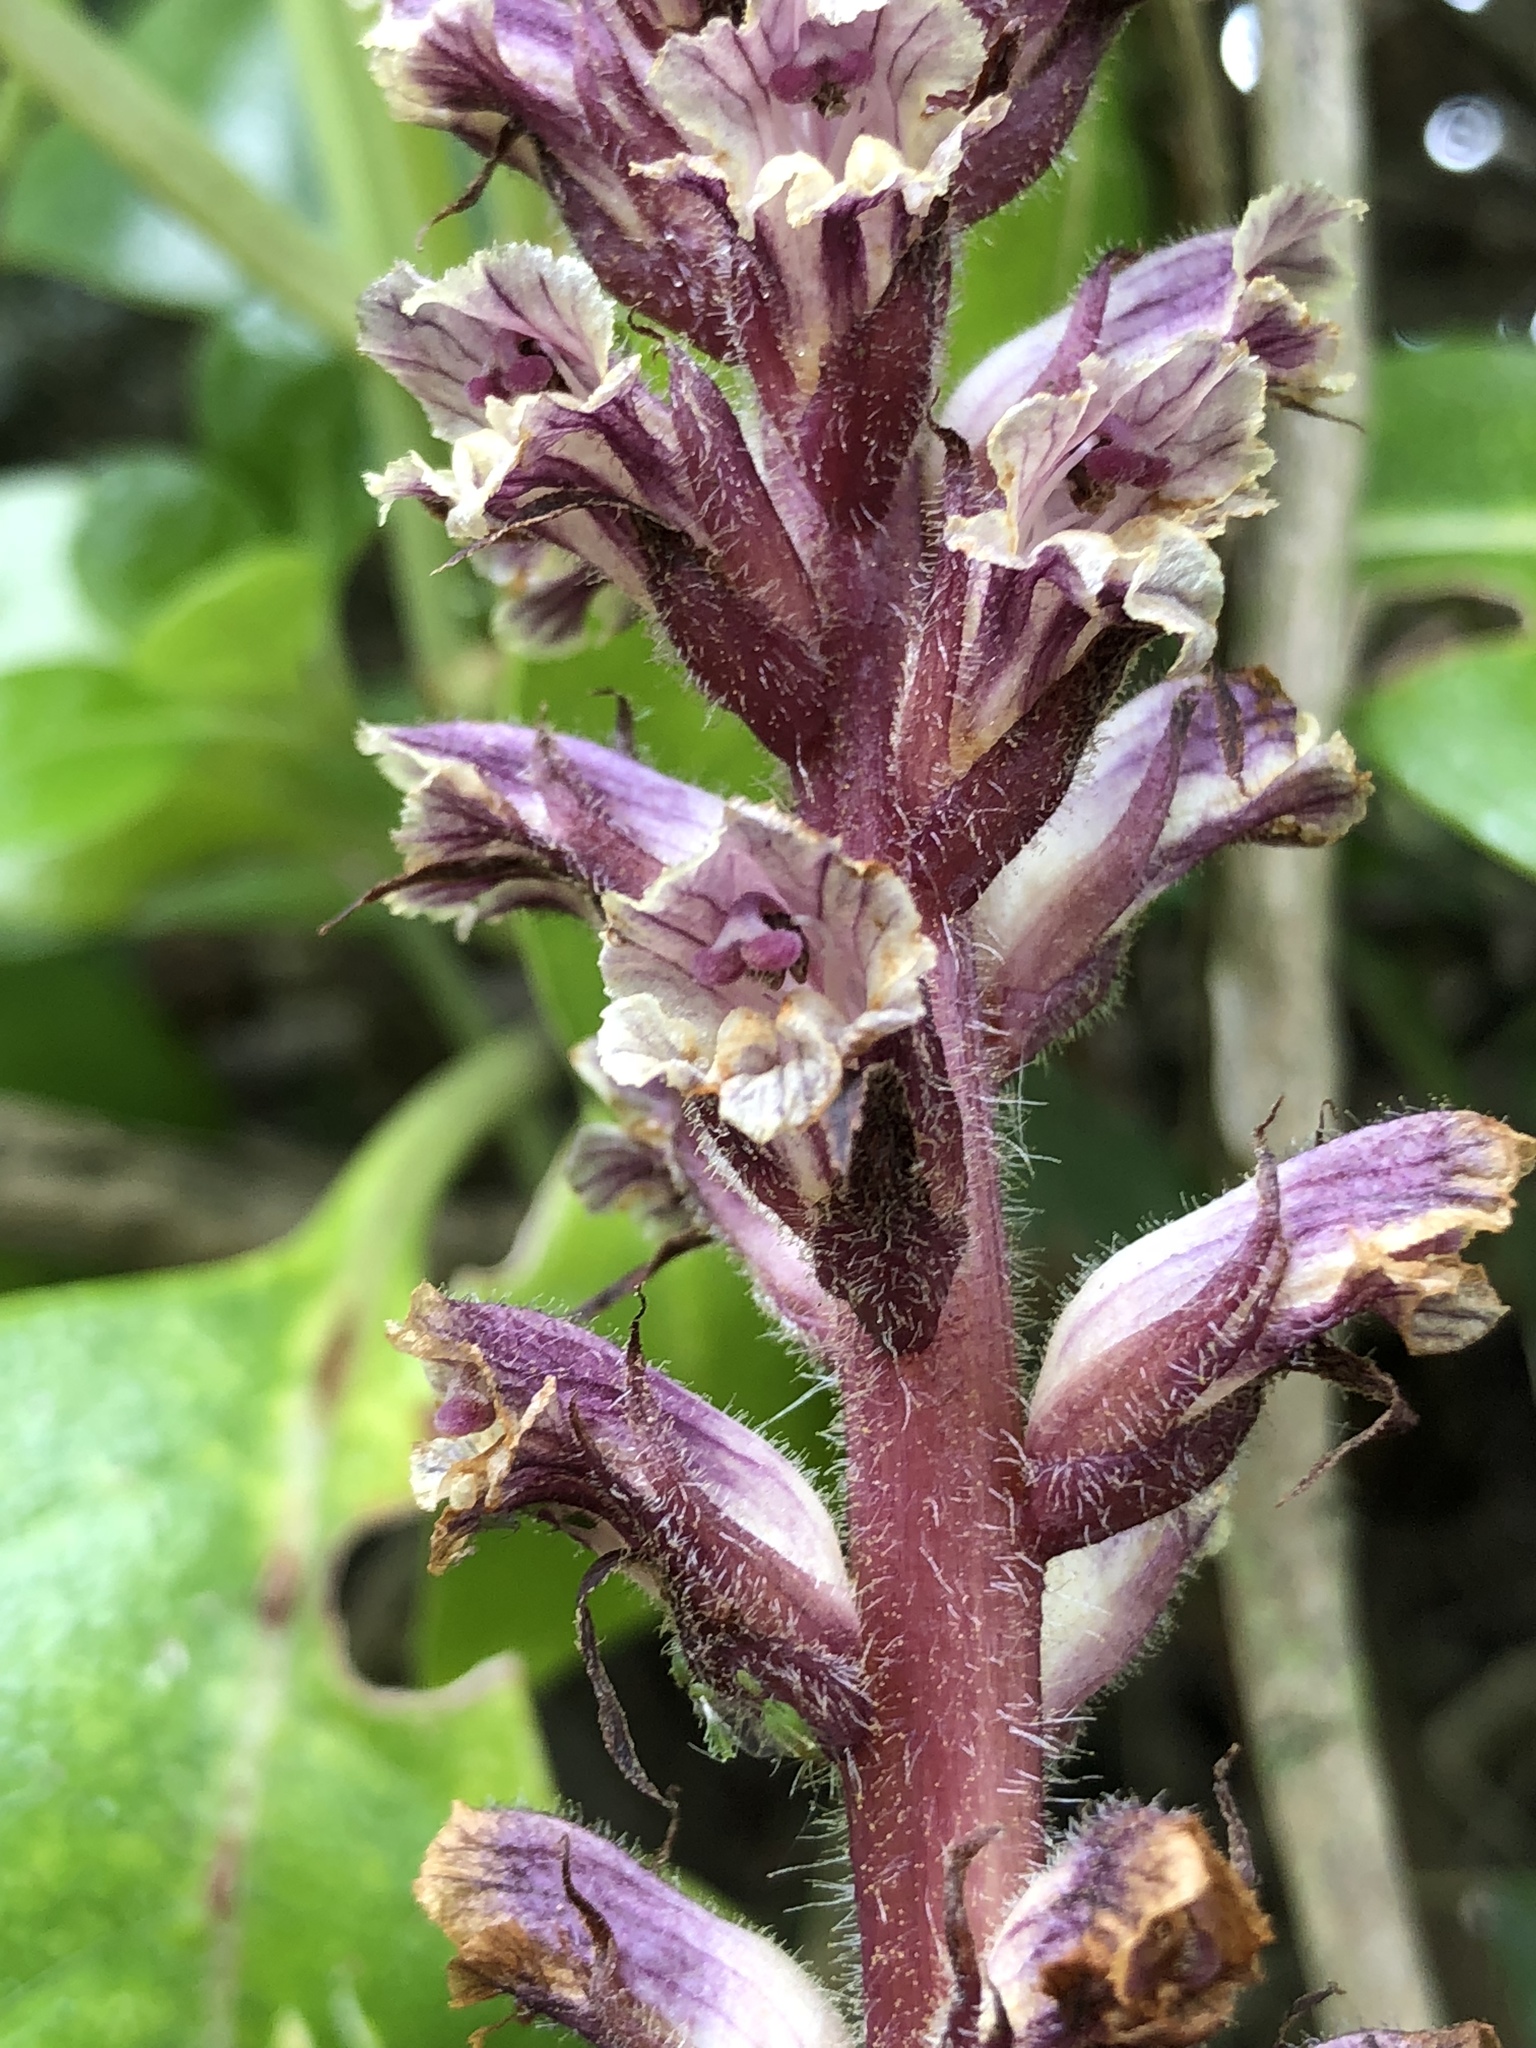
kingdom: Plantae
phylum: Tracheophyta
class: Magnoliopsida
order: Lamiales
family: Orobanchaceae
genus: Orobanche
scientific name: Orobanche minor
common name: Common broomrape
